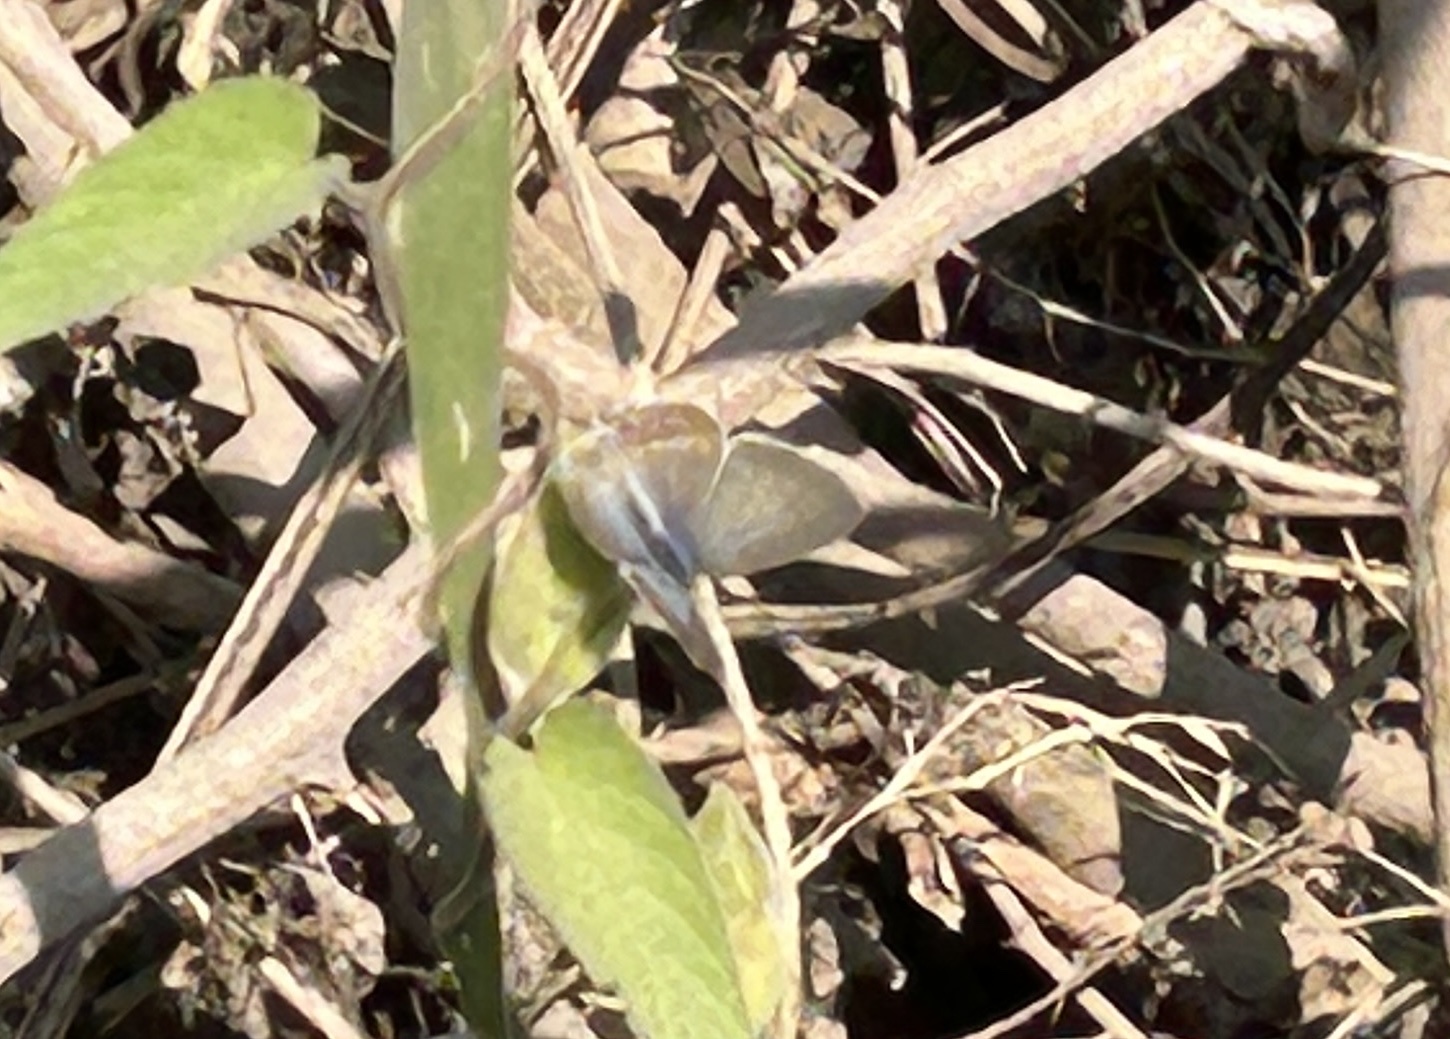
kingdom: Animalia
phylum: Arthropoda
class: Insecta
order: Lepidoptera
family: Lycaenidae
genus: Euchrysops
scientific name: Euchrysops cnejus
